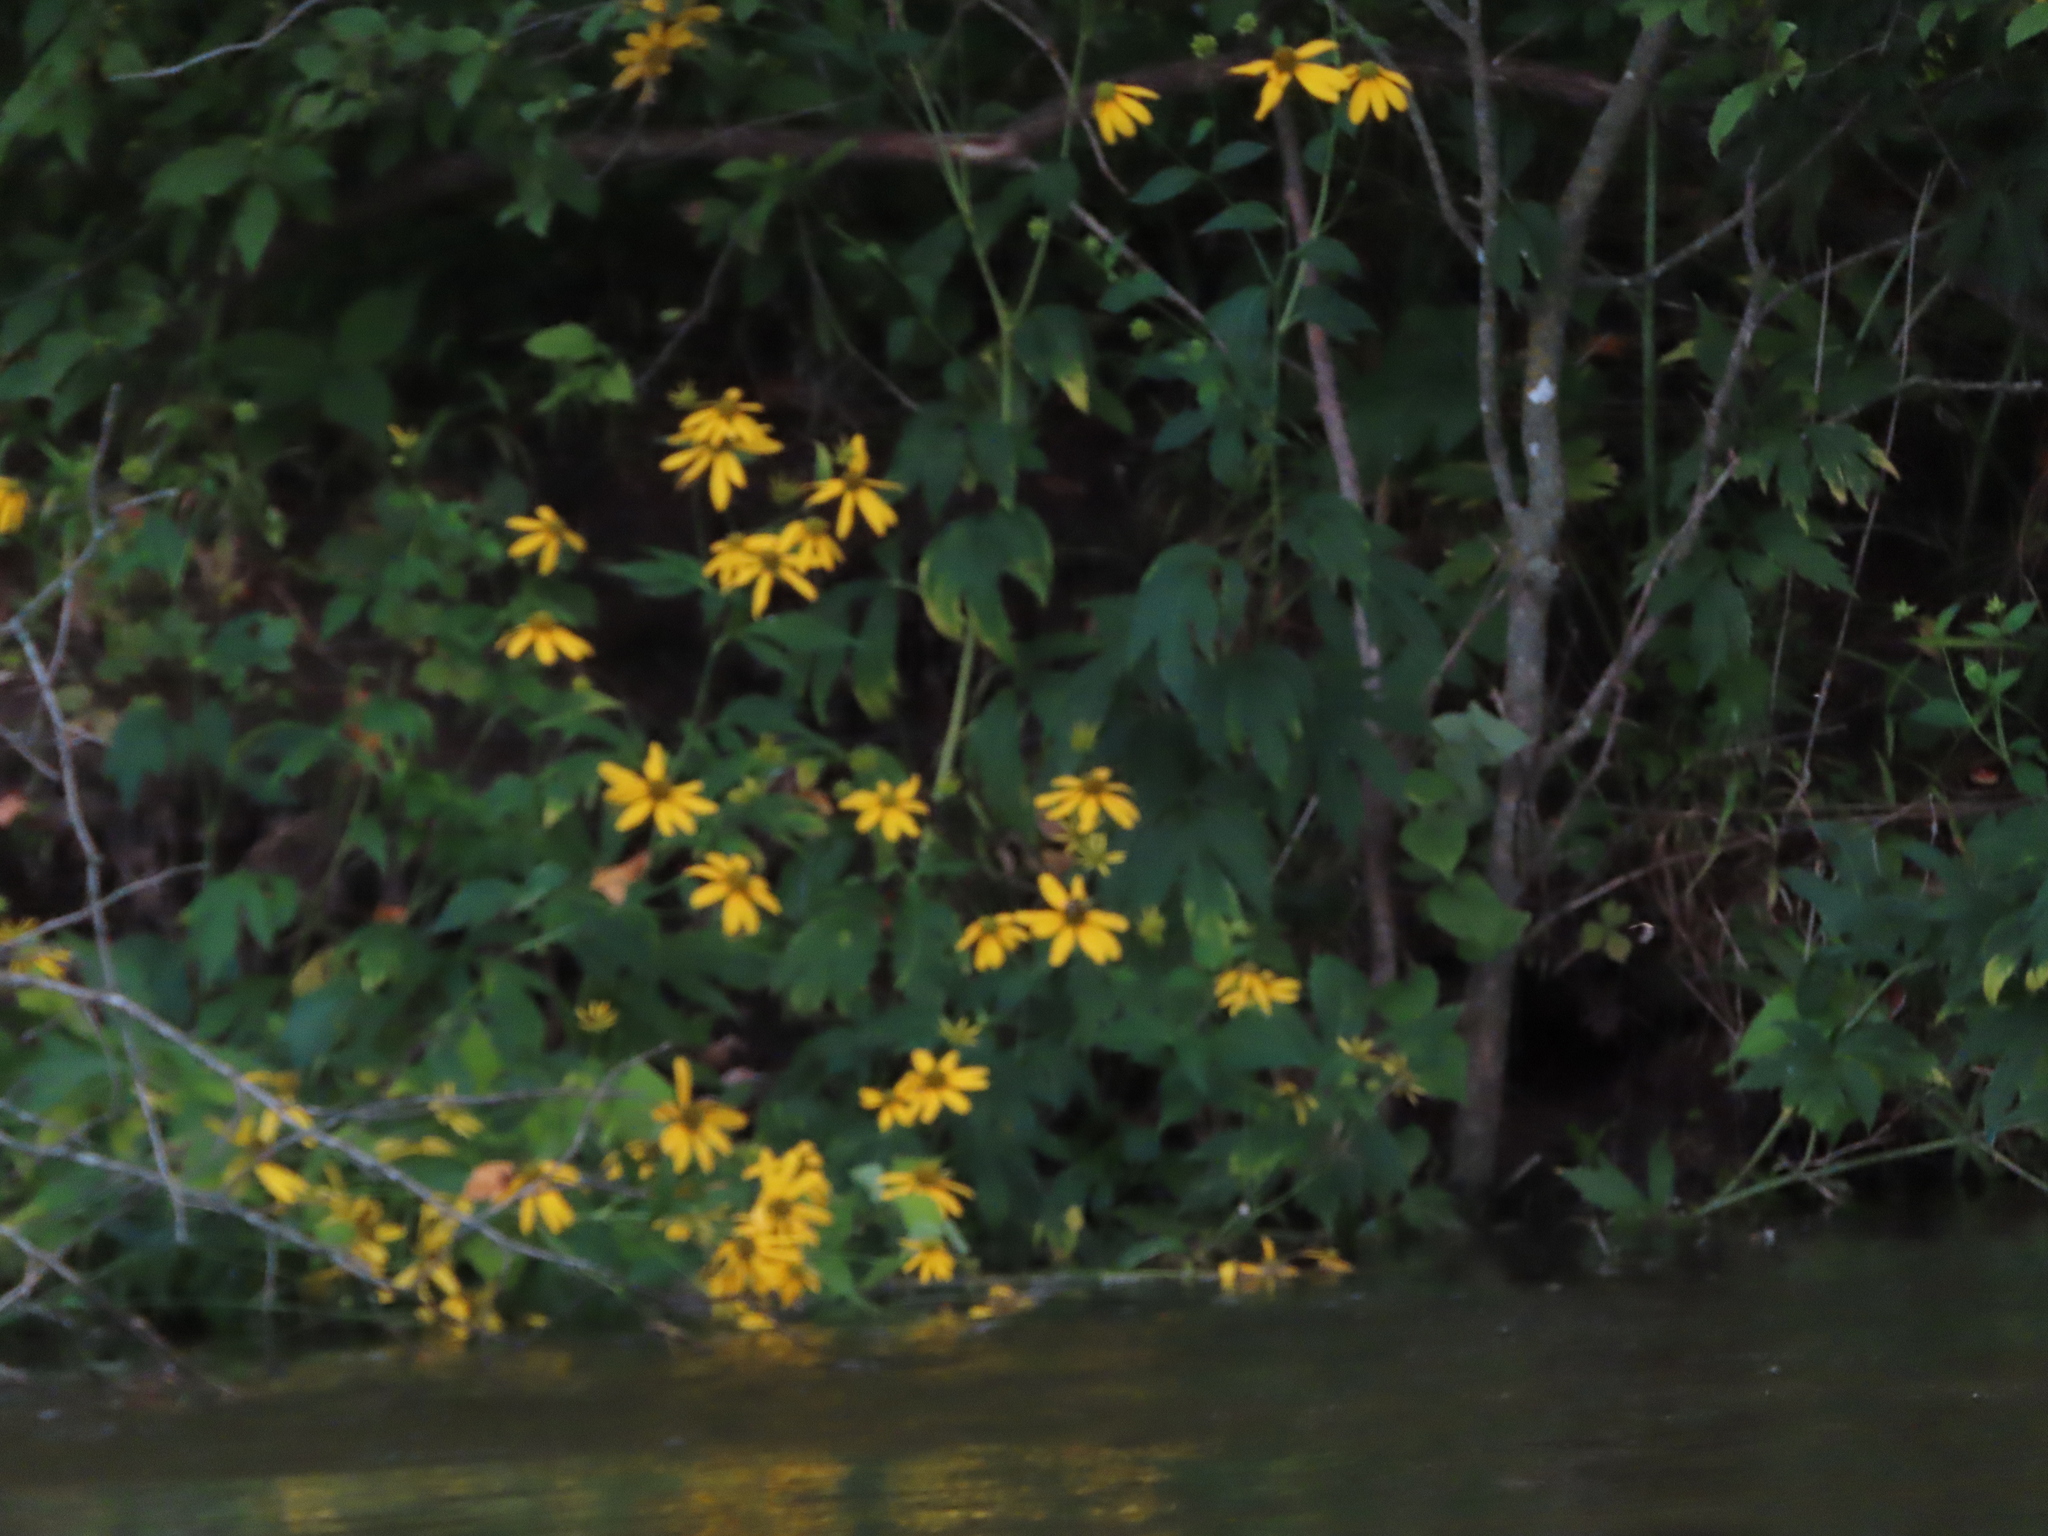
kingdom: Plantae
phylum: Tracheophyta
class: Magnoliopsida
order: Asterales
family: Asteraceae
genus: Rudbeckia
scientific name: Rudbeckia laciniata
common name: Coneflower
